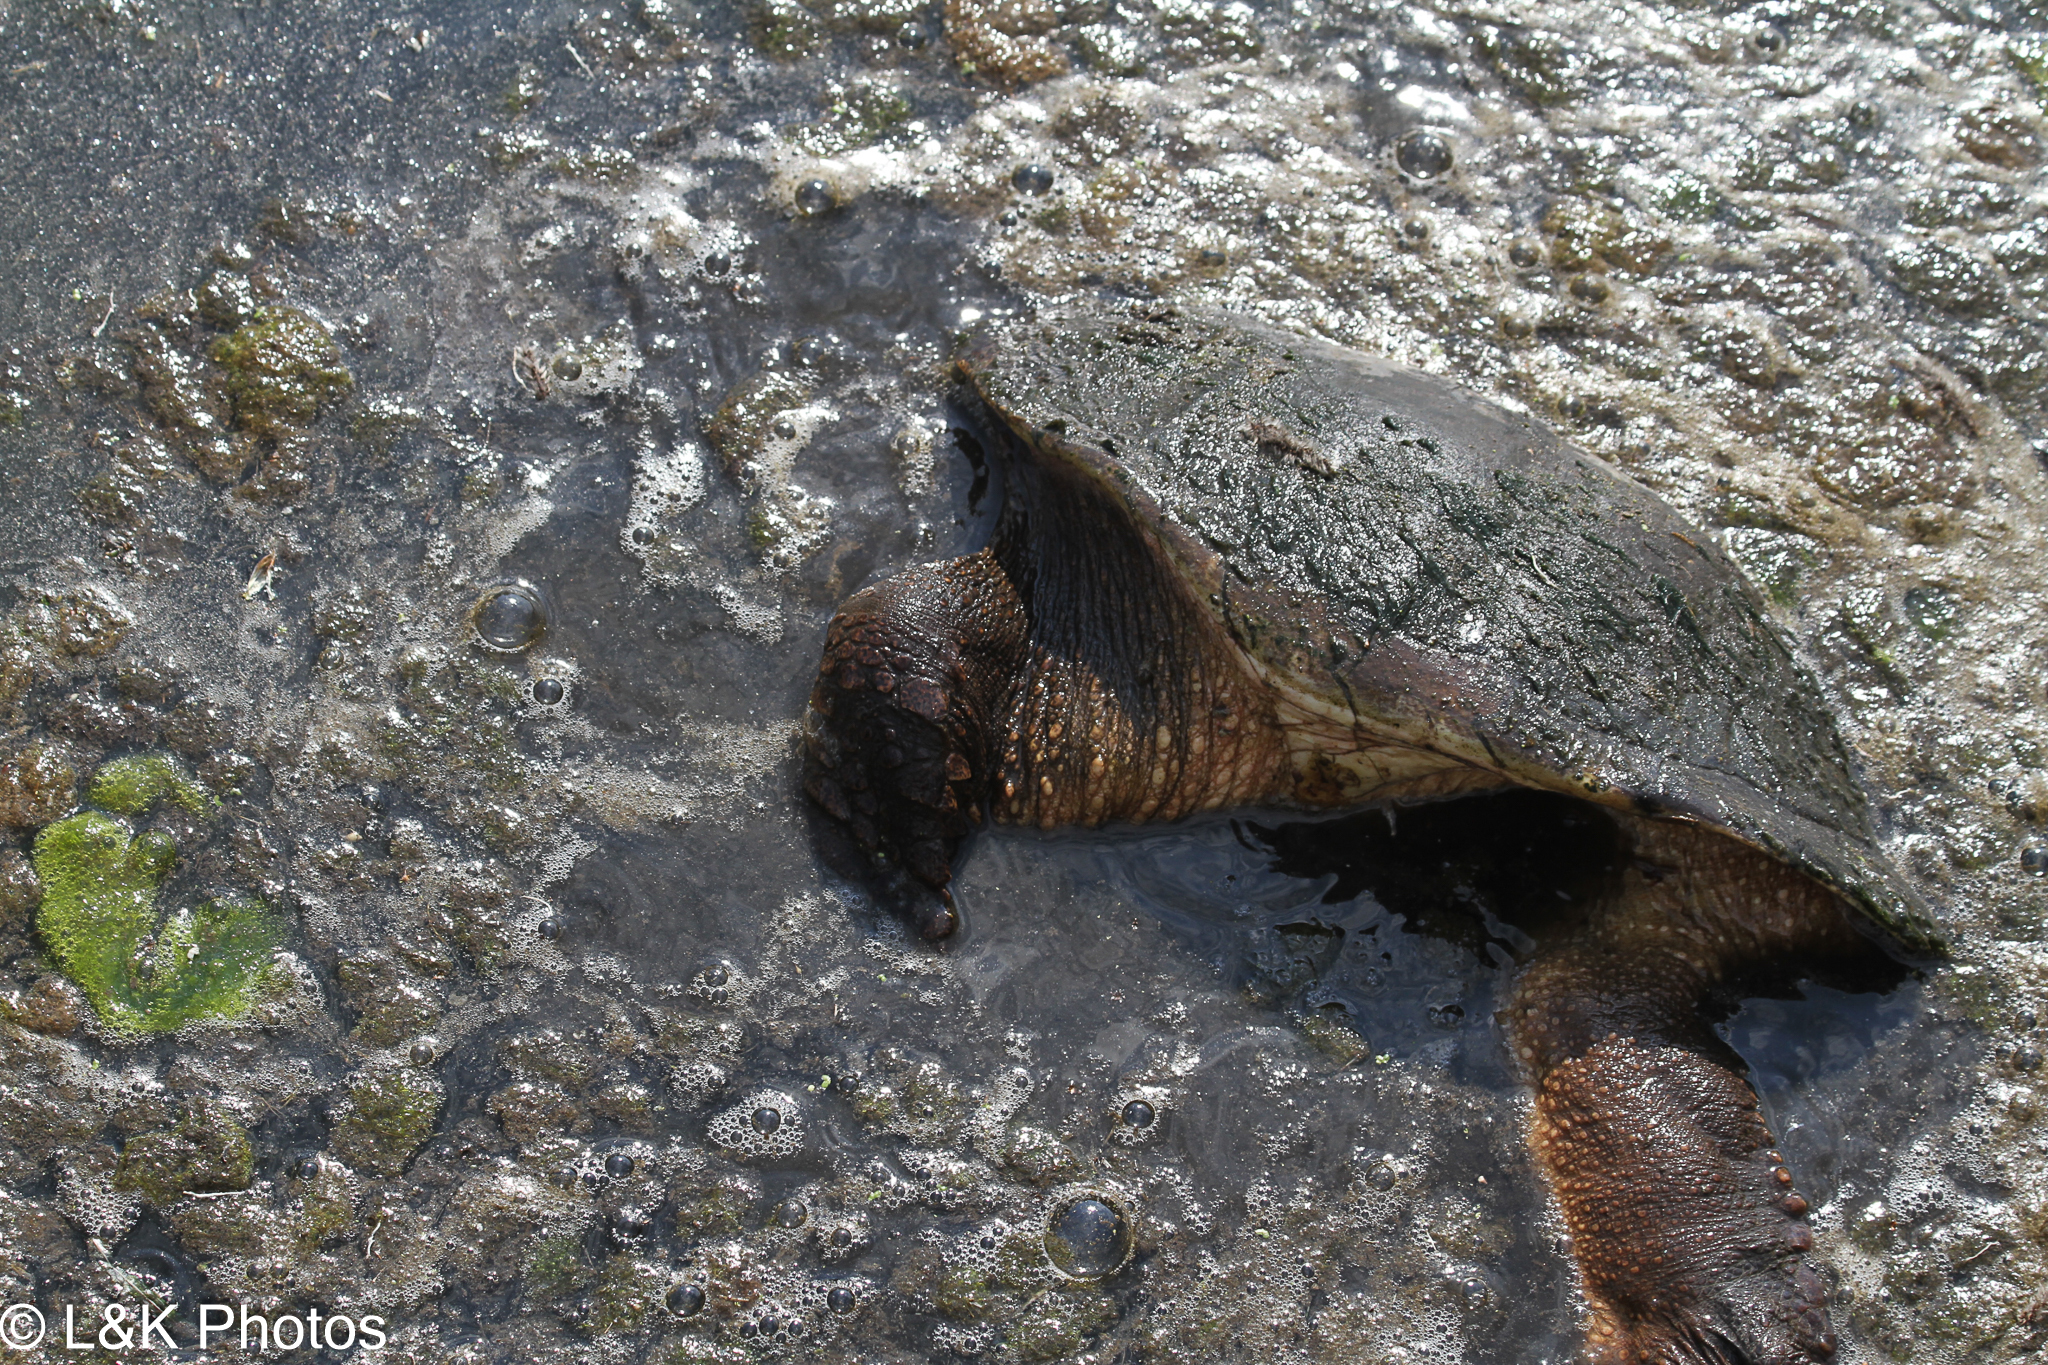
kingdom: Animalia
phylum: Chordata
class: Testudines
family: Chelydridae
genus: Chelydra
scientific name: Chelydra serpentina
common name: Common snapping turtle
